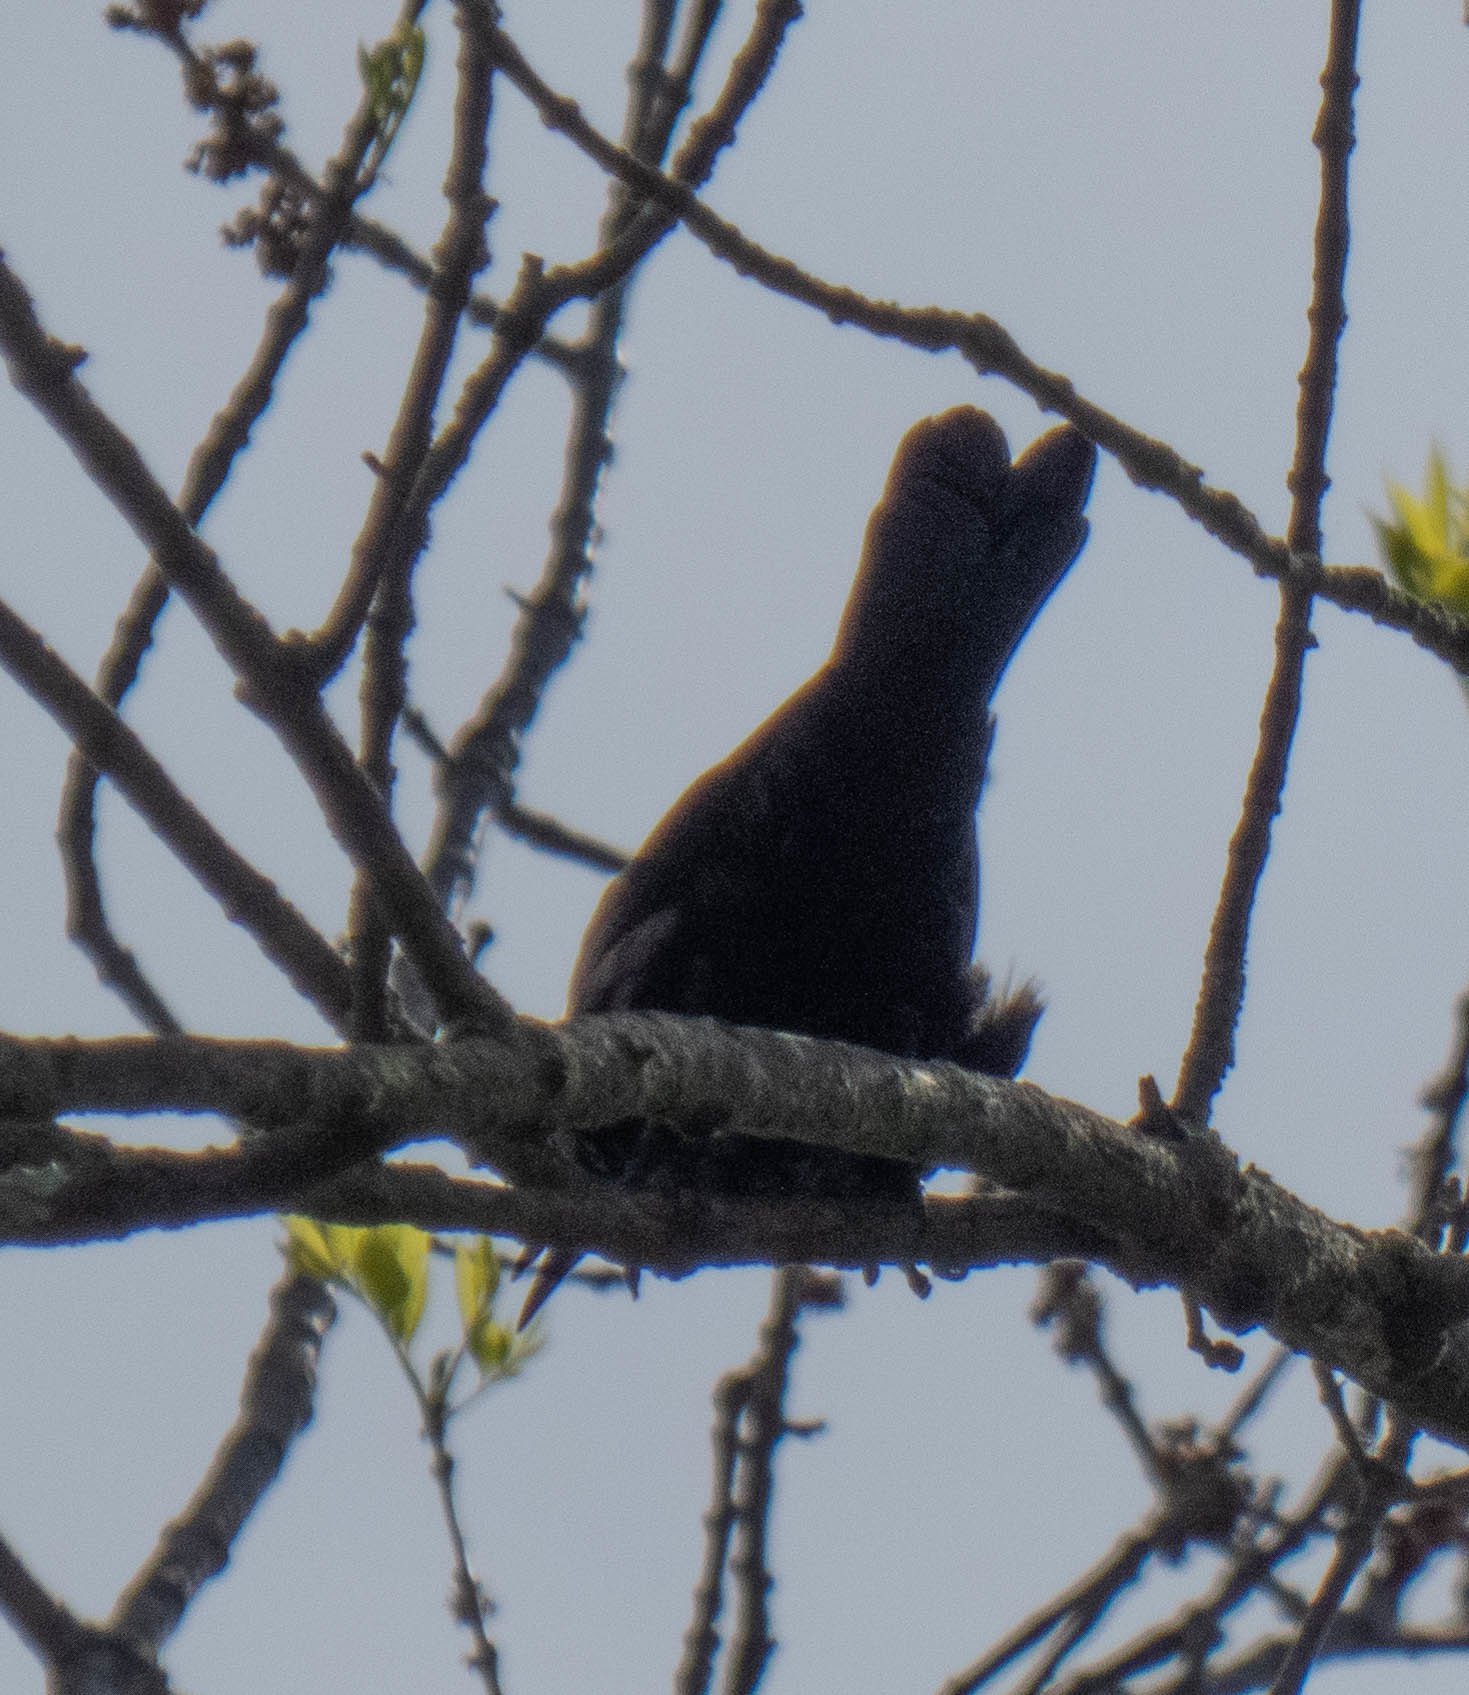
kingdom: Animalia
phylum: Chordata
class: Aves
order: Passeriformes
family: Icteridae
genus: Quiscalus
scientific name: Quiscalus quiscula
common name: Common grackle
